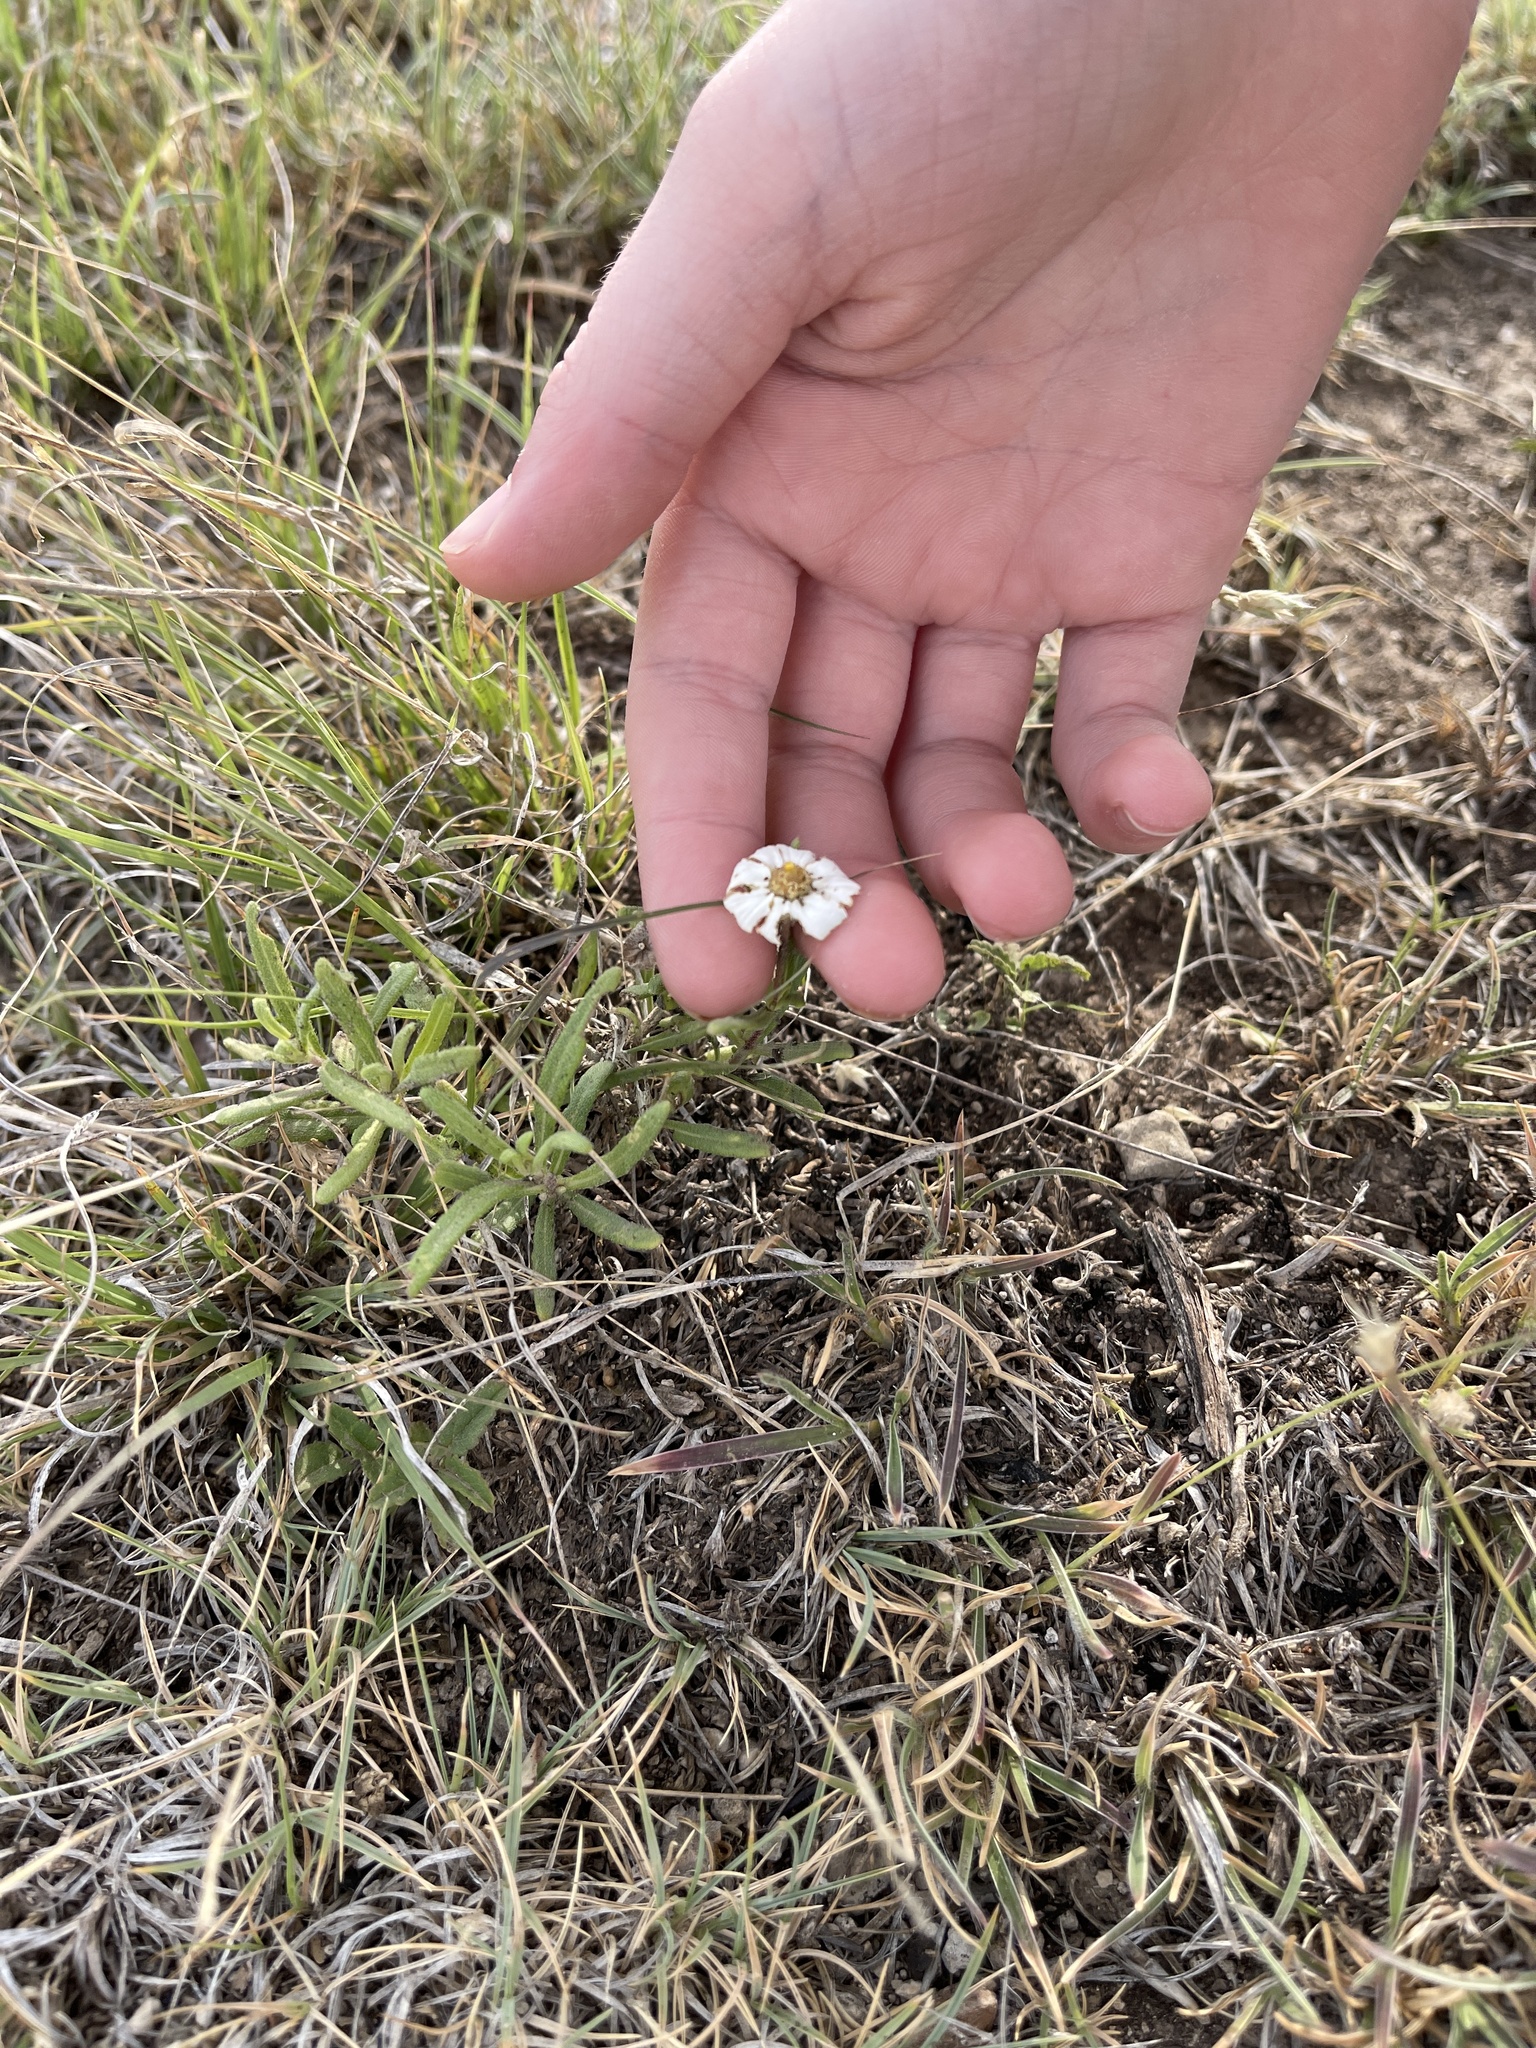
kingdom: Plantae
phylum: Tracheophyta
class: Magnoliopsida
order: Asterales
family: Asteraceae
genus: Melampodium
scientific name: Melampodium leucanthum
